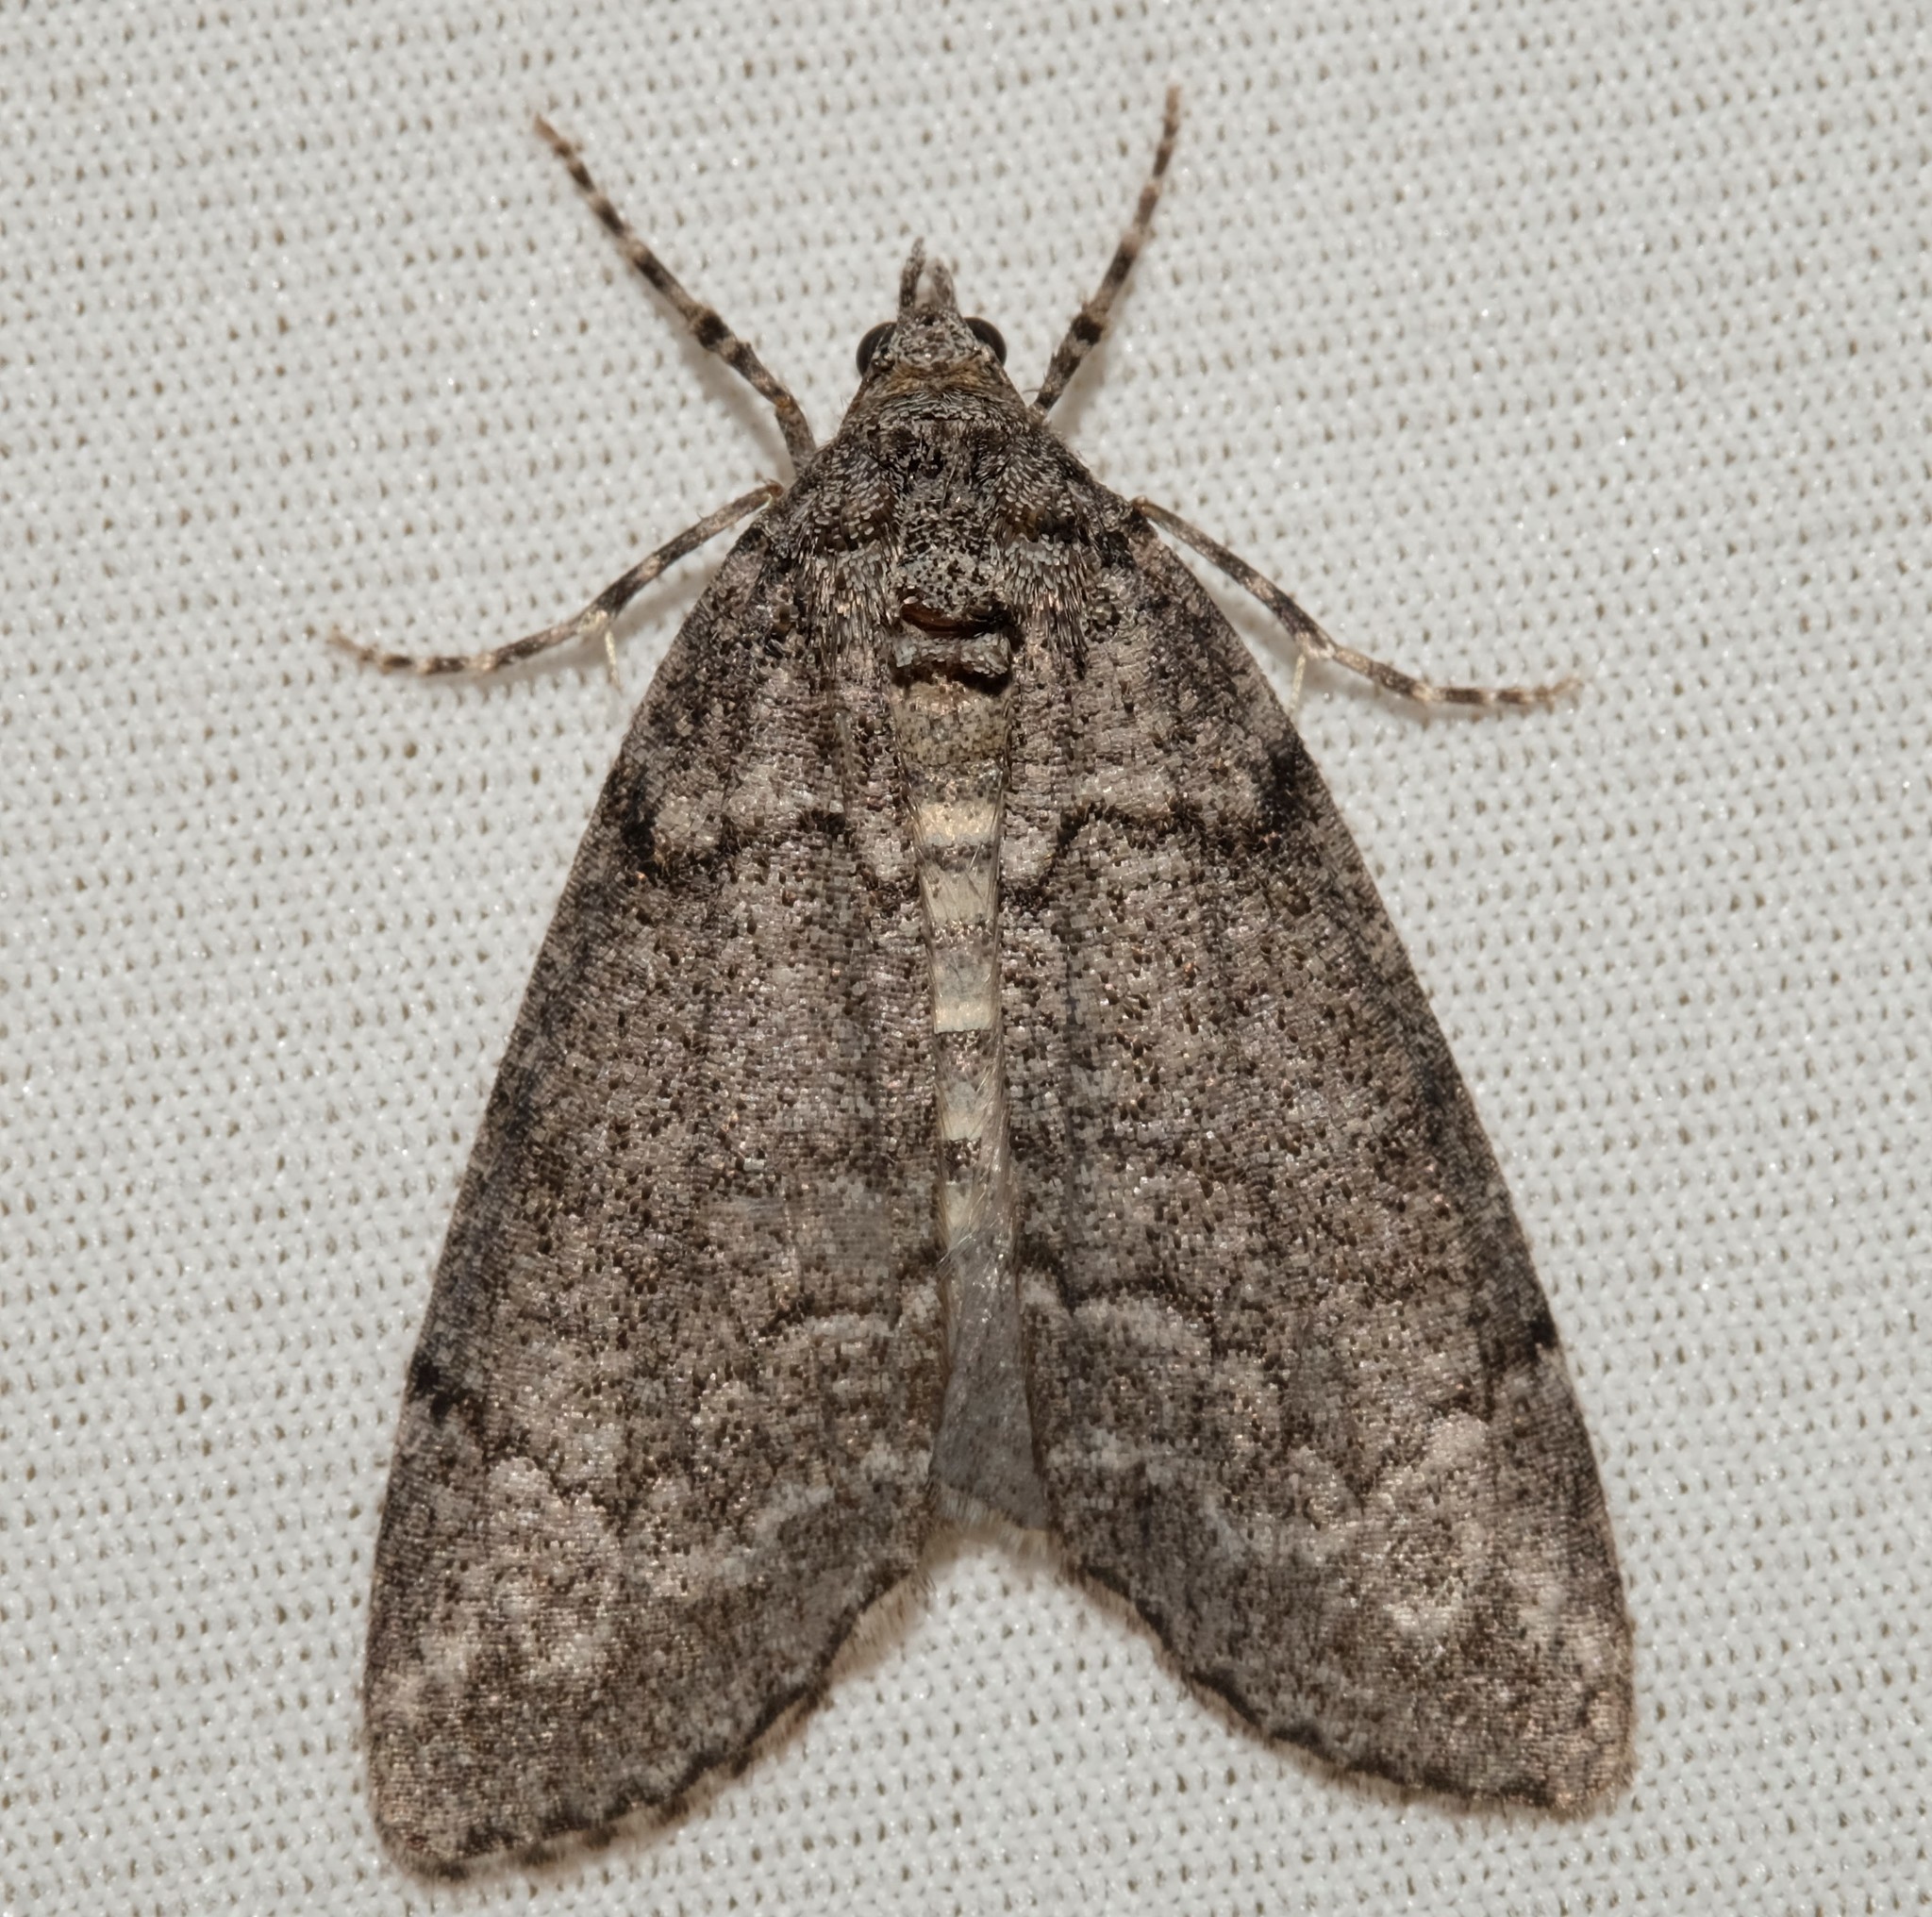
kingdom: Animalia
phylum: Arthropoda
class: Insecta
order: Lepidoptera
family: Geometridae
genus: Smyriodes
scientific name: Smyriodes trigramma
